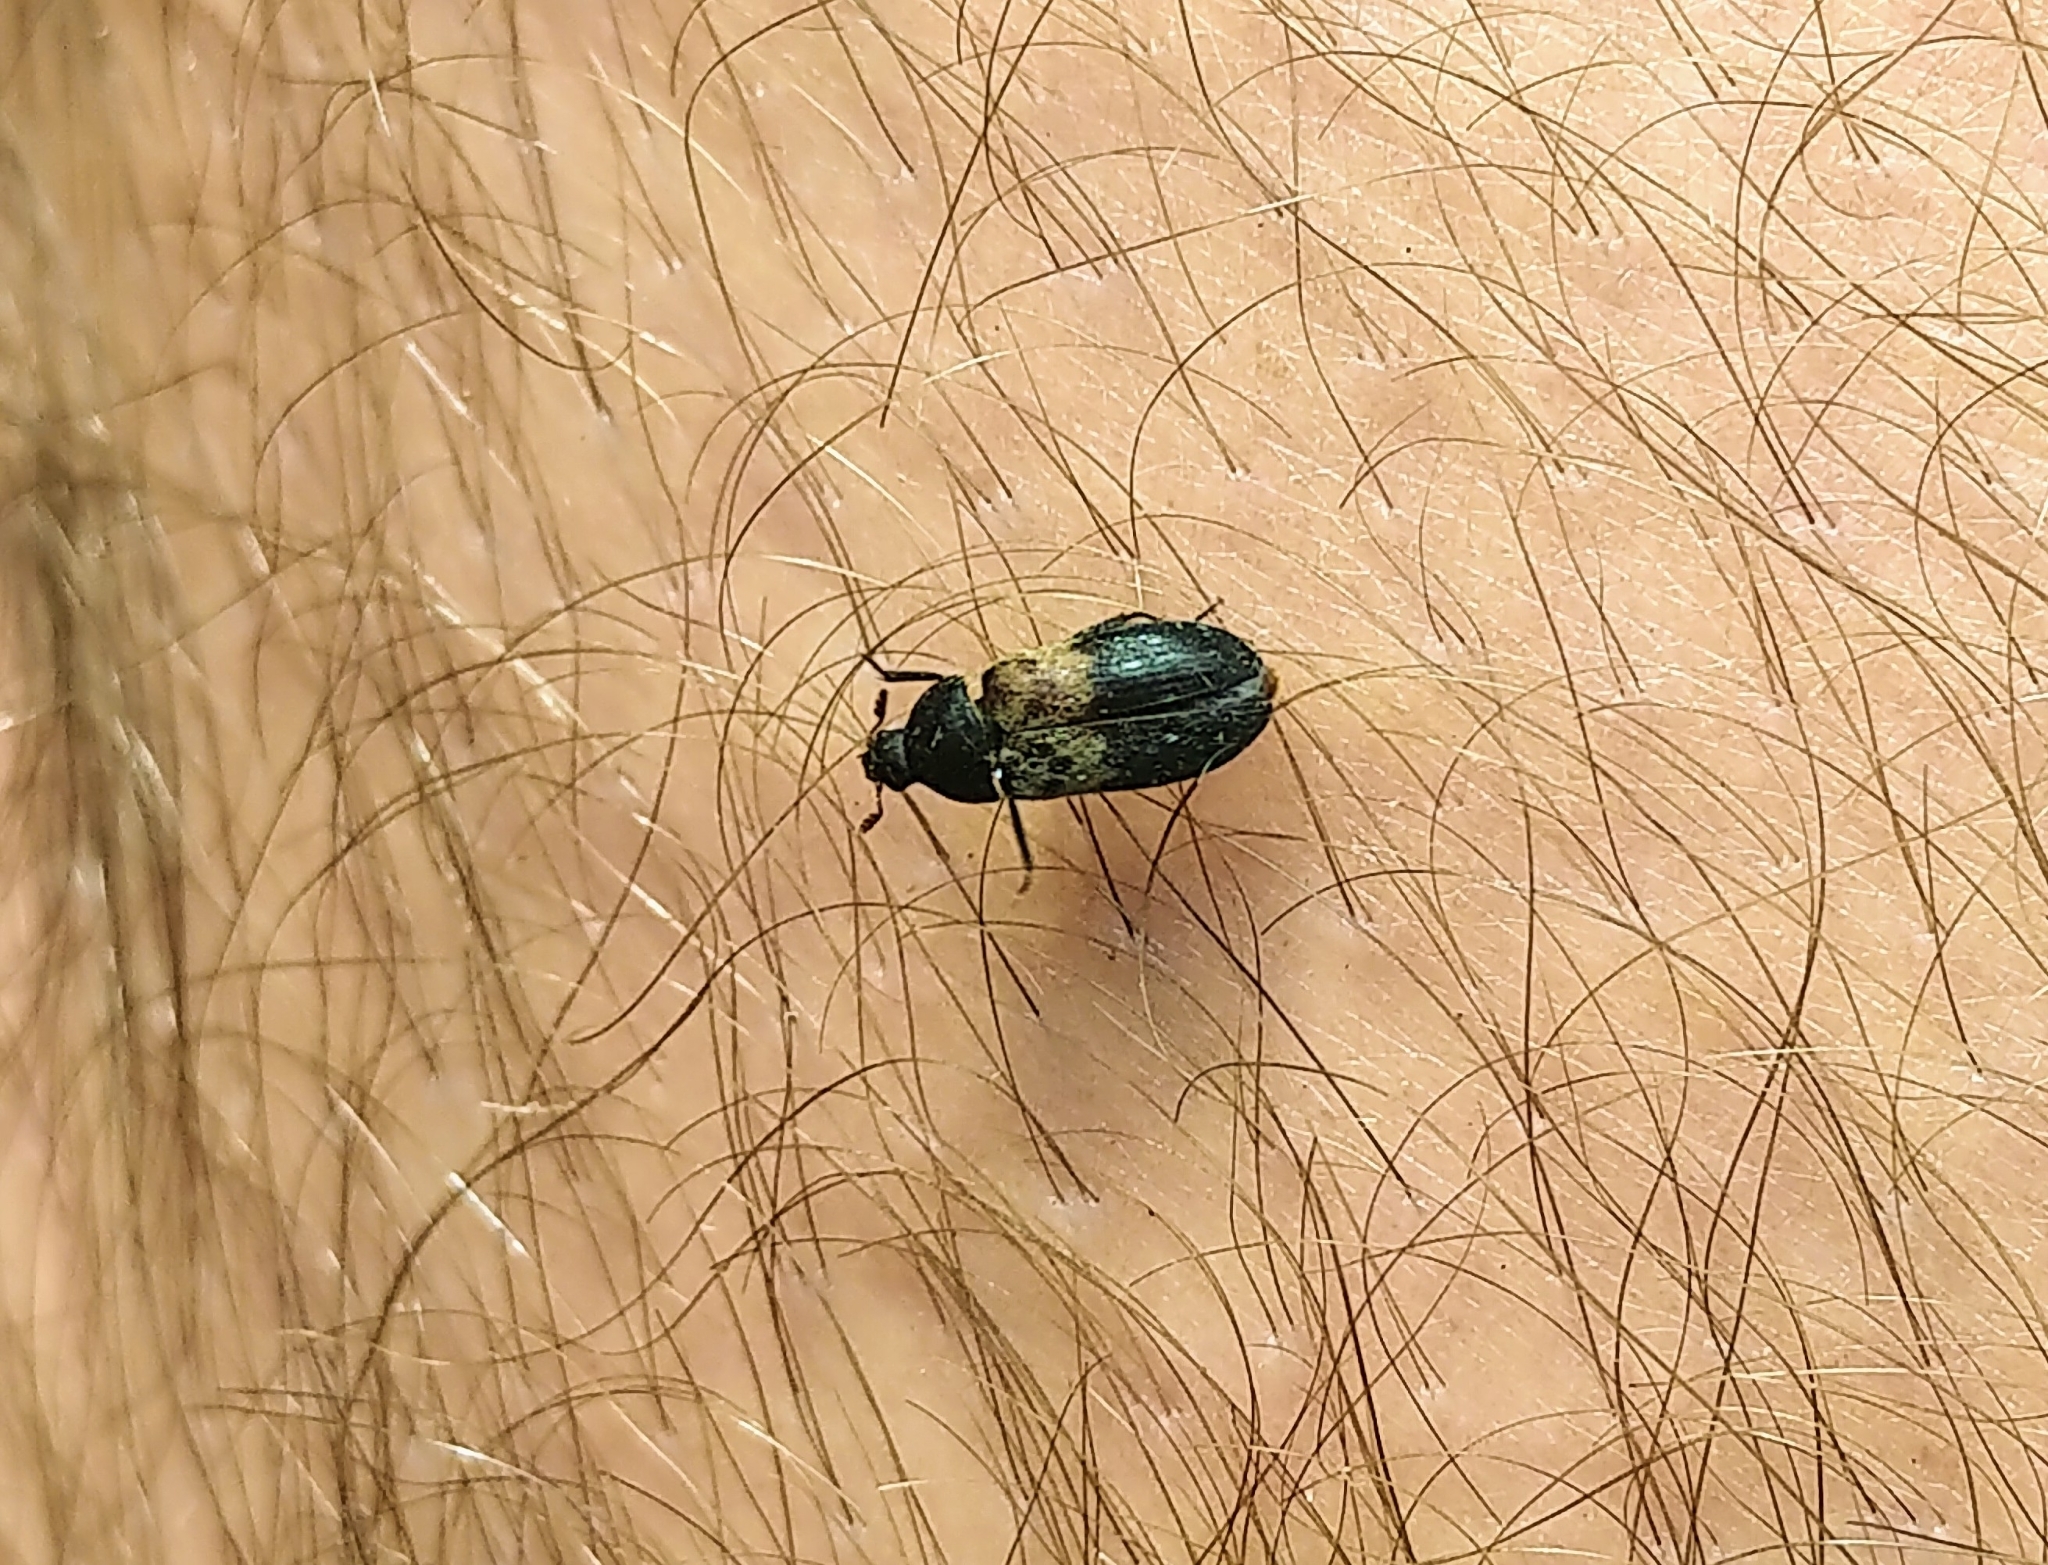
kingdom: Animalia
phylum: Arthropoda
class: Insecta
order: Coleoptera
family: Dermestidae
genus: Dermestes
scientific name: Dermestes lardarius
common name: Larder beetle
